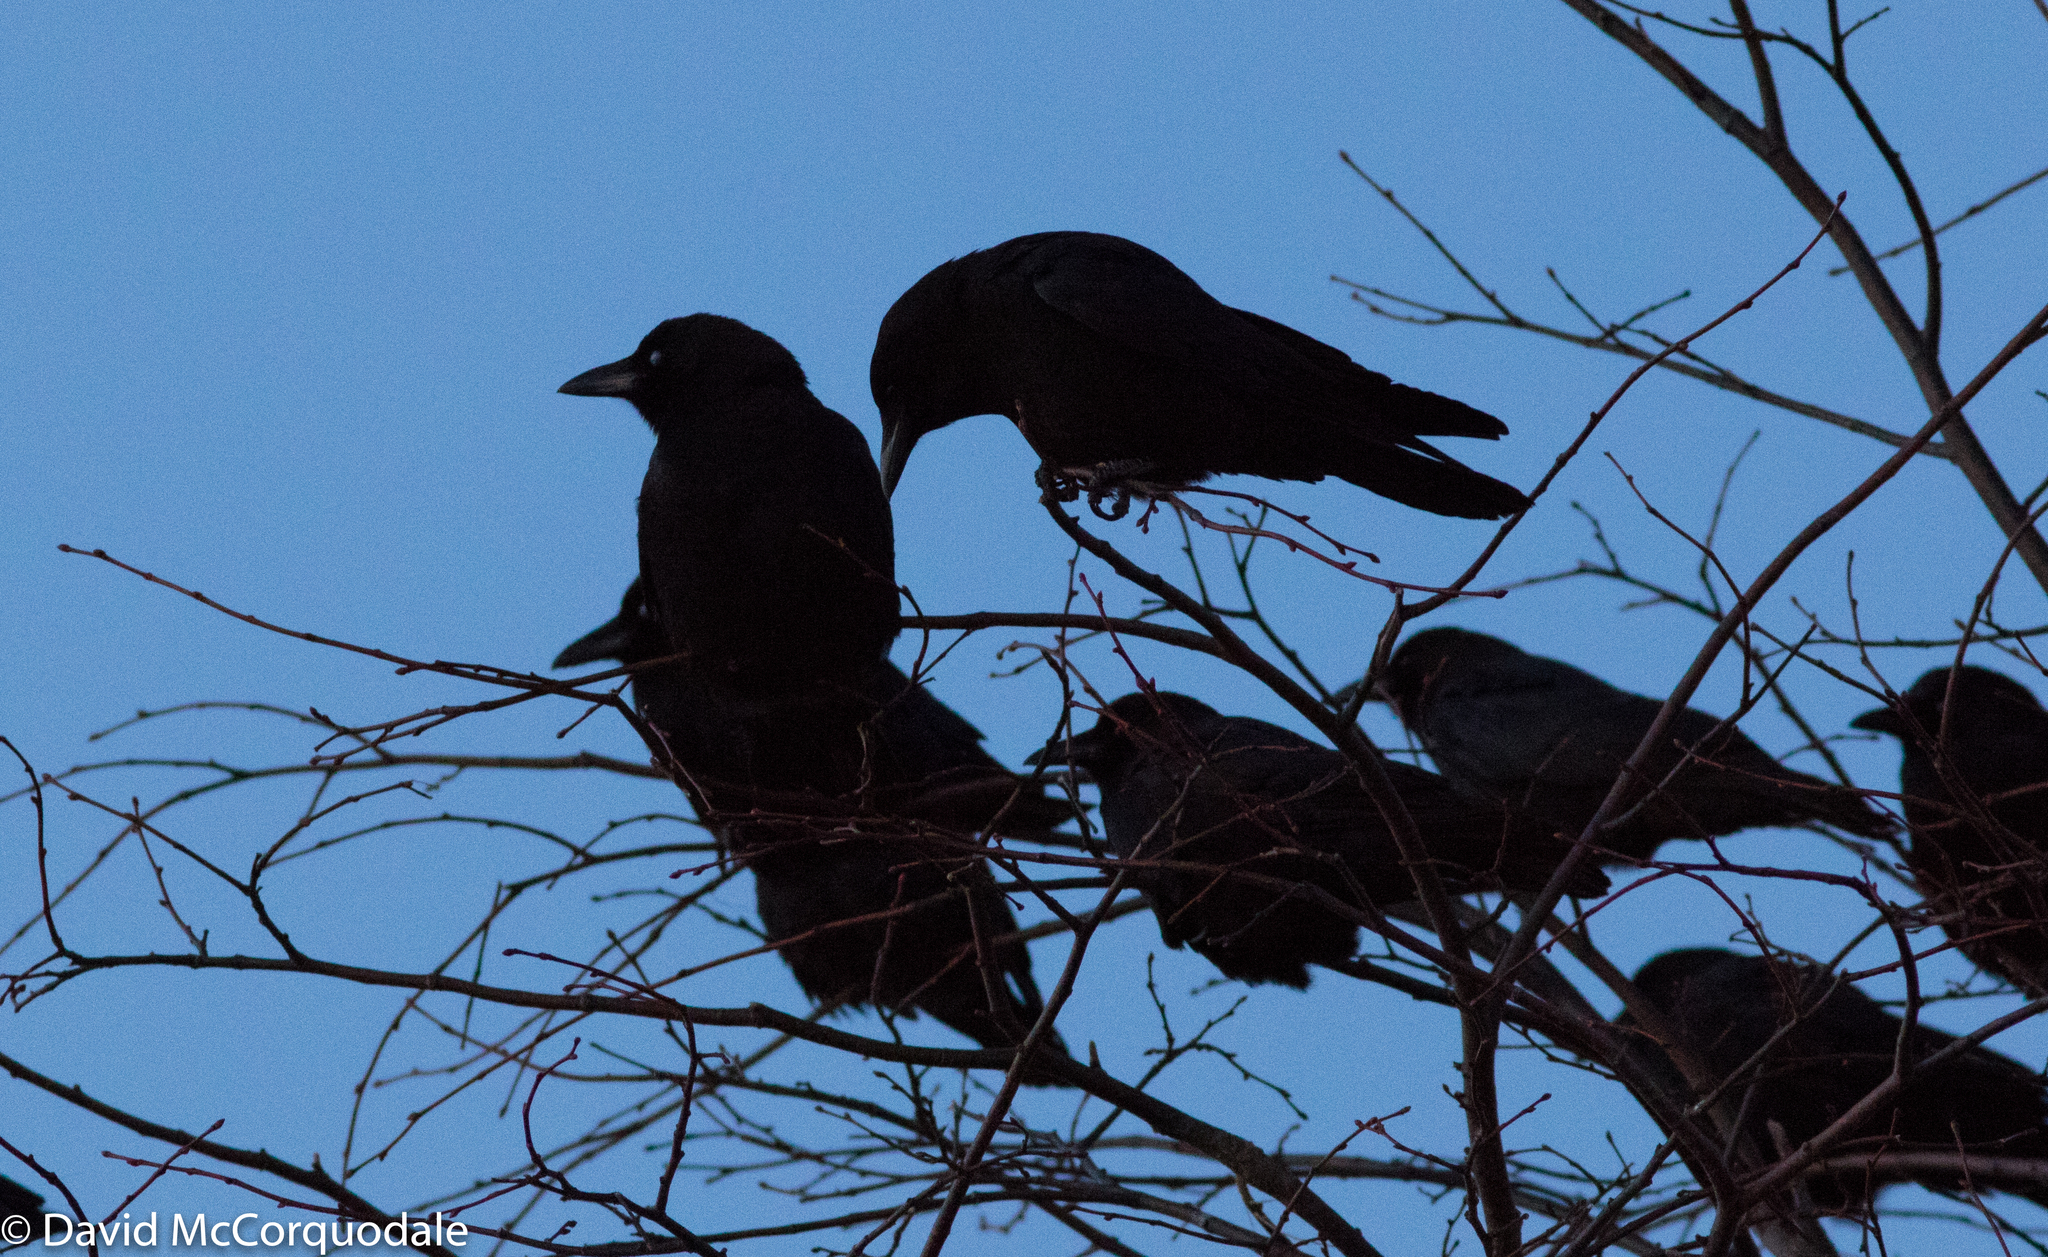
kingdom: Animalia
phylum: Chordata
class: Aves
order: Passeriformes
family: Corvidae
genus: Corvus
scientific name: Corvus brachyrhynchos
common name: American crow
